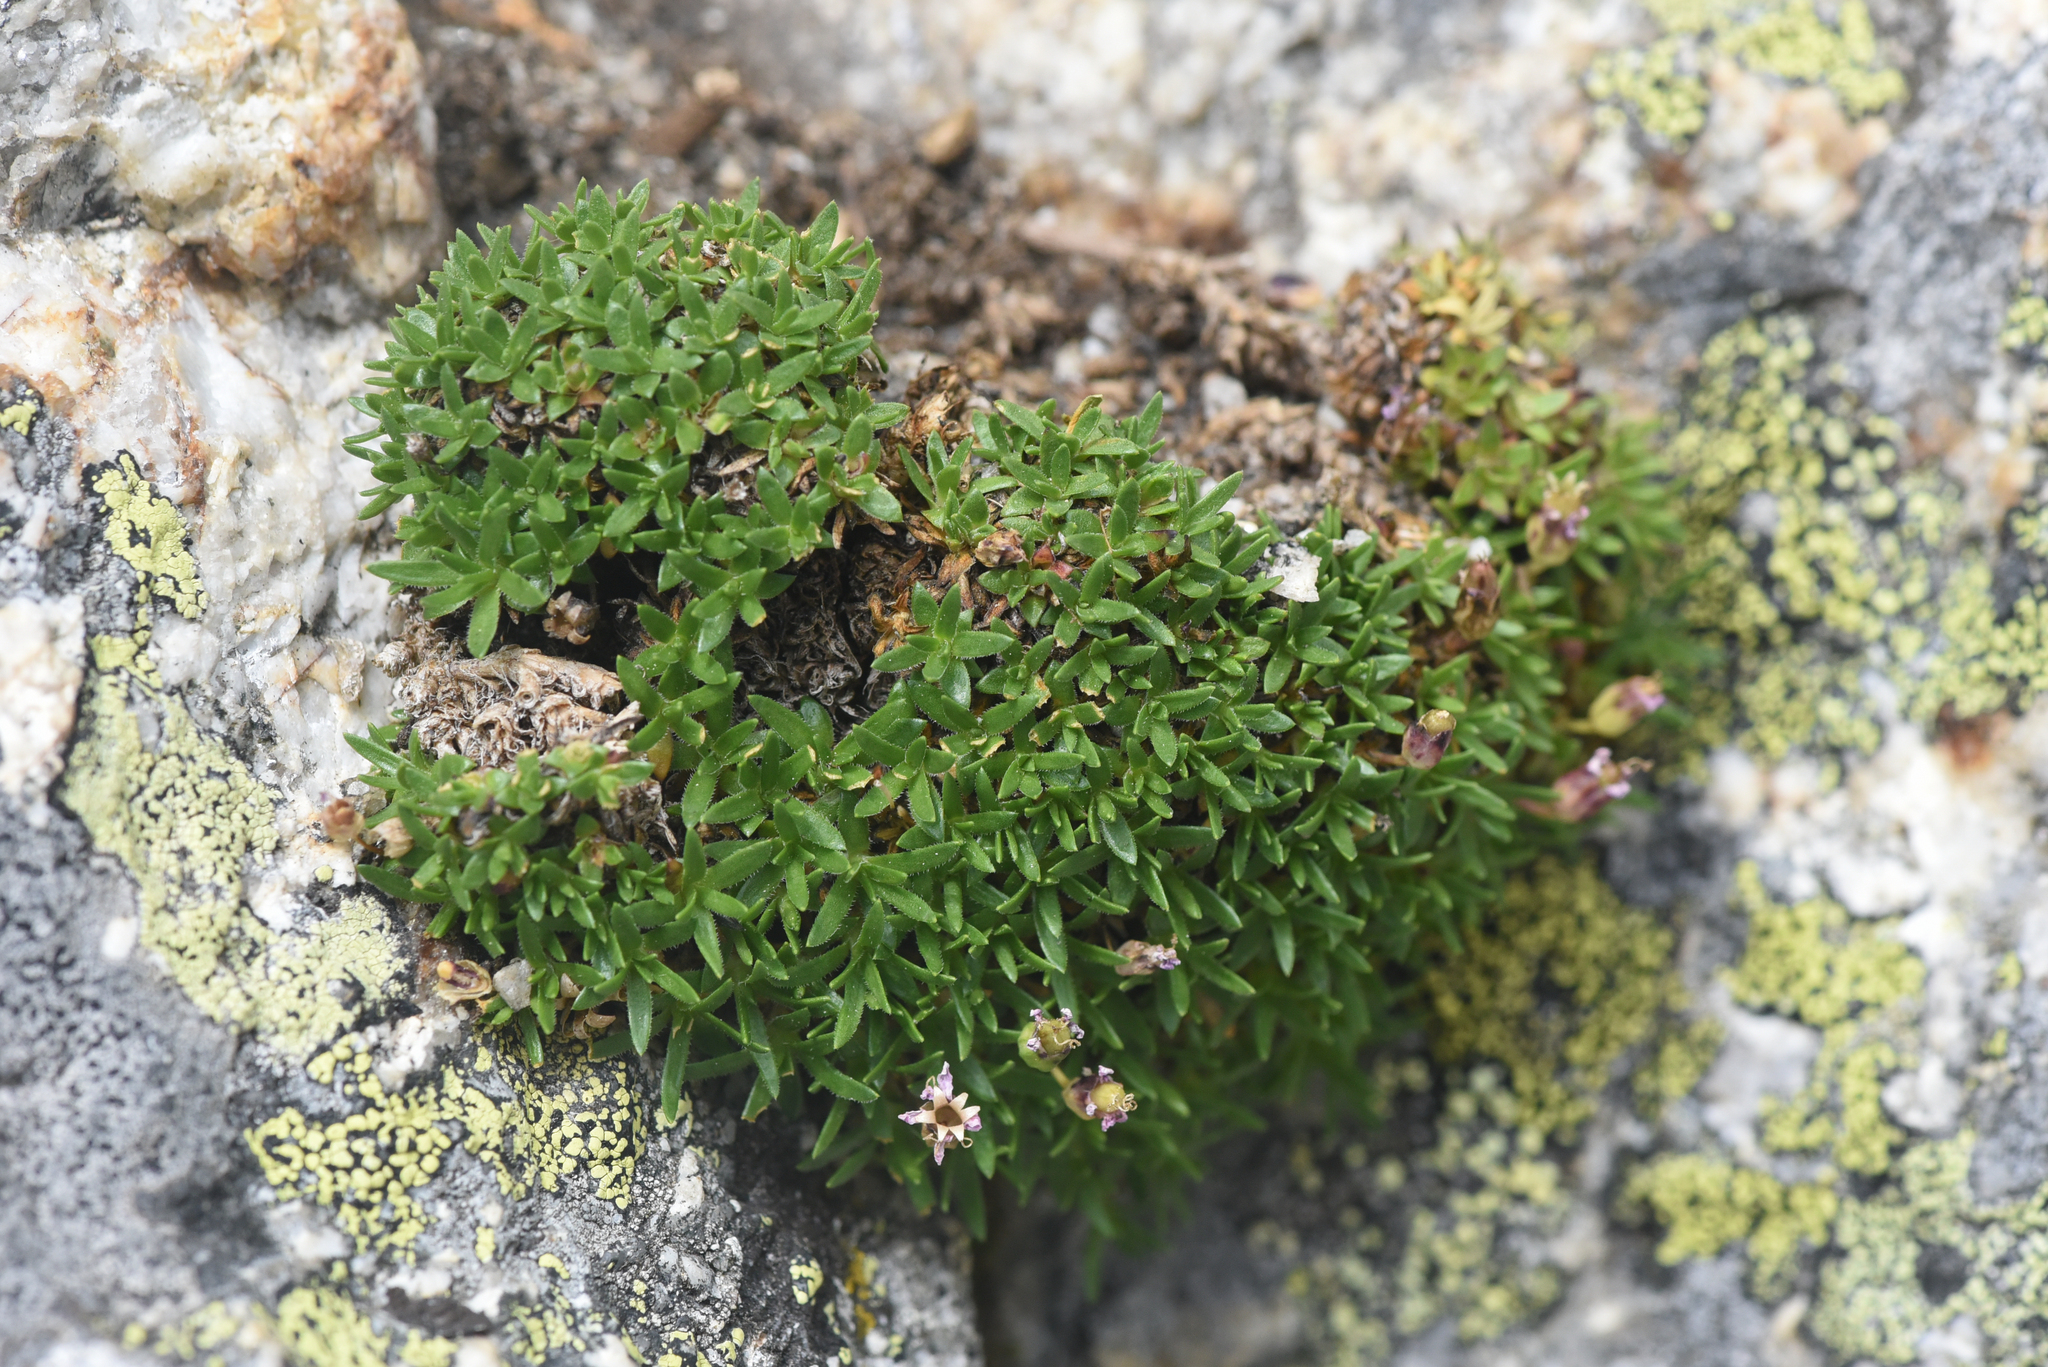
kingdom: Plantae
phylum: Tracheophyta
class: Magnoliopsida
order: Caryophyllales
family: Caryophyllaceae
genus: Silene
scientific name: Silene acaulis
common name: Moss campion
